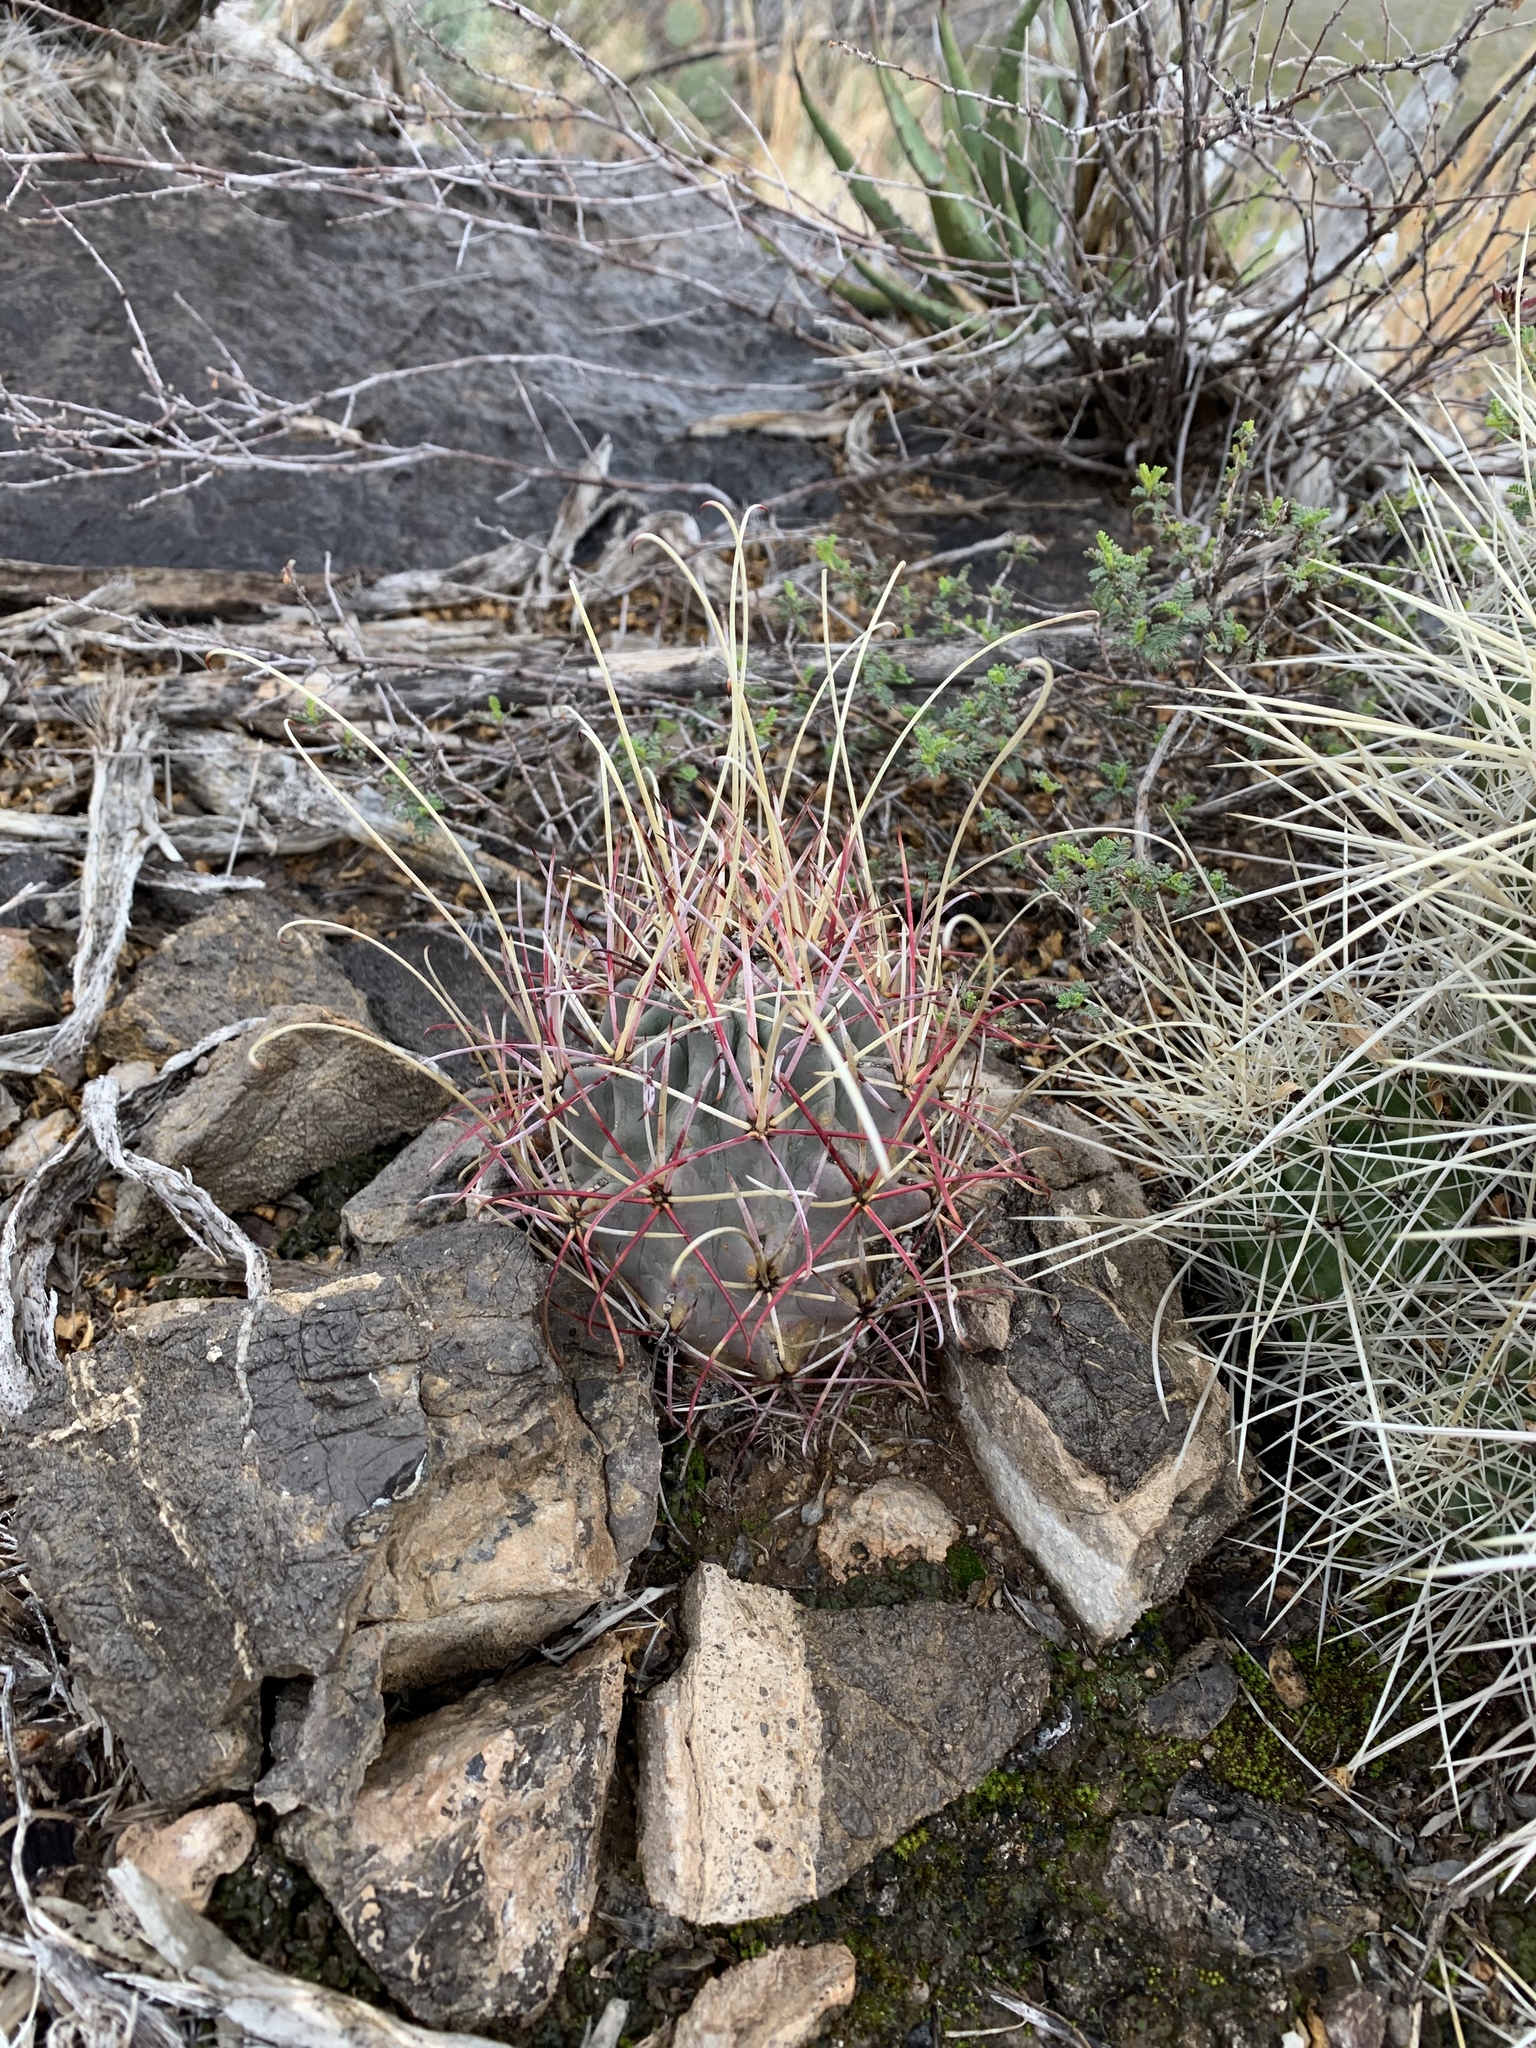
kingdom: Plantae
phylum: Tracheophyta
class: Magnoliopsida
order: Caryophyllales
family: Cactaceae
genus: Ferocactus
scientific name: Ferocactus uncinatus
